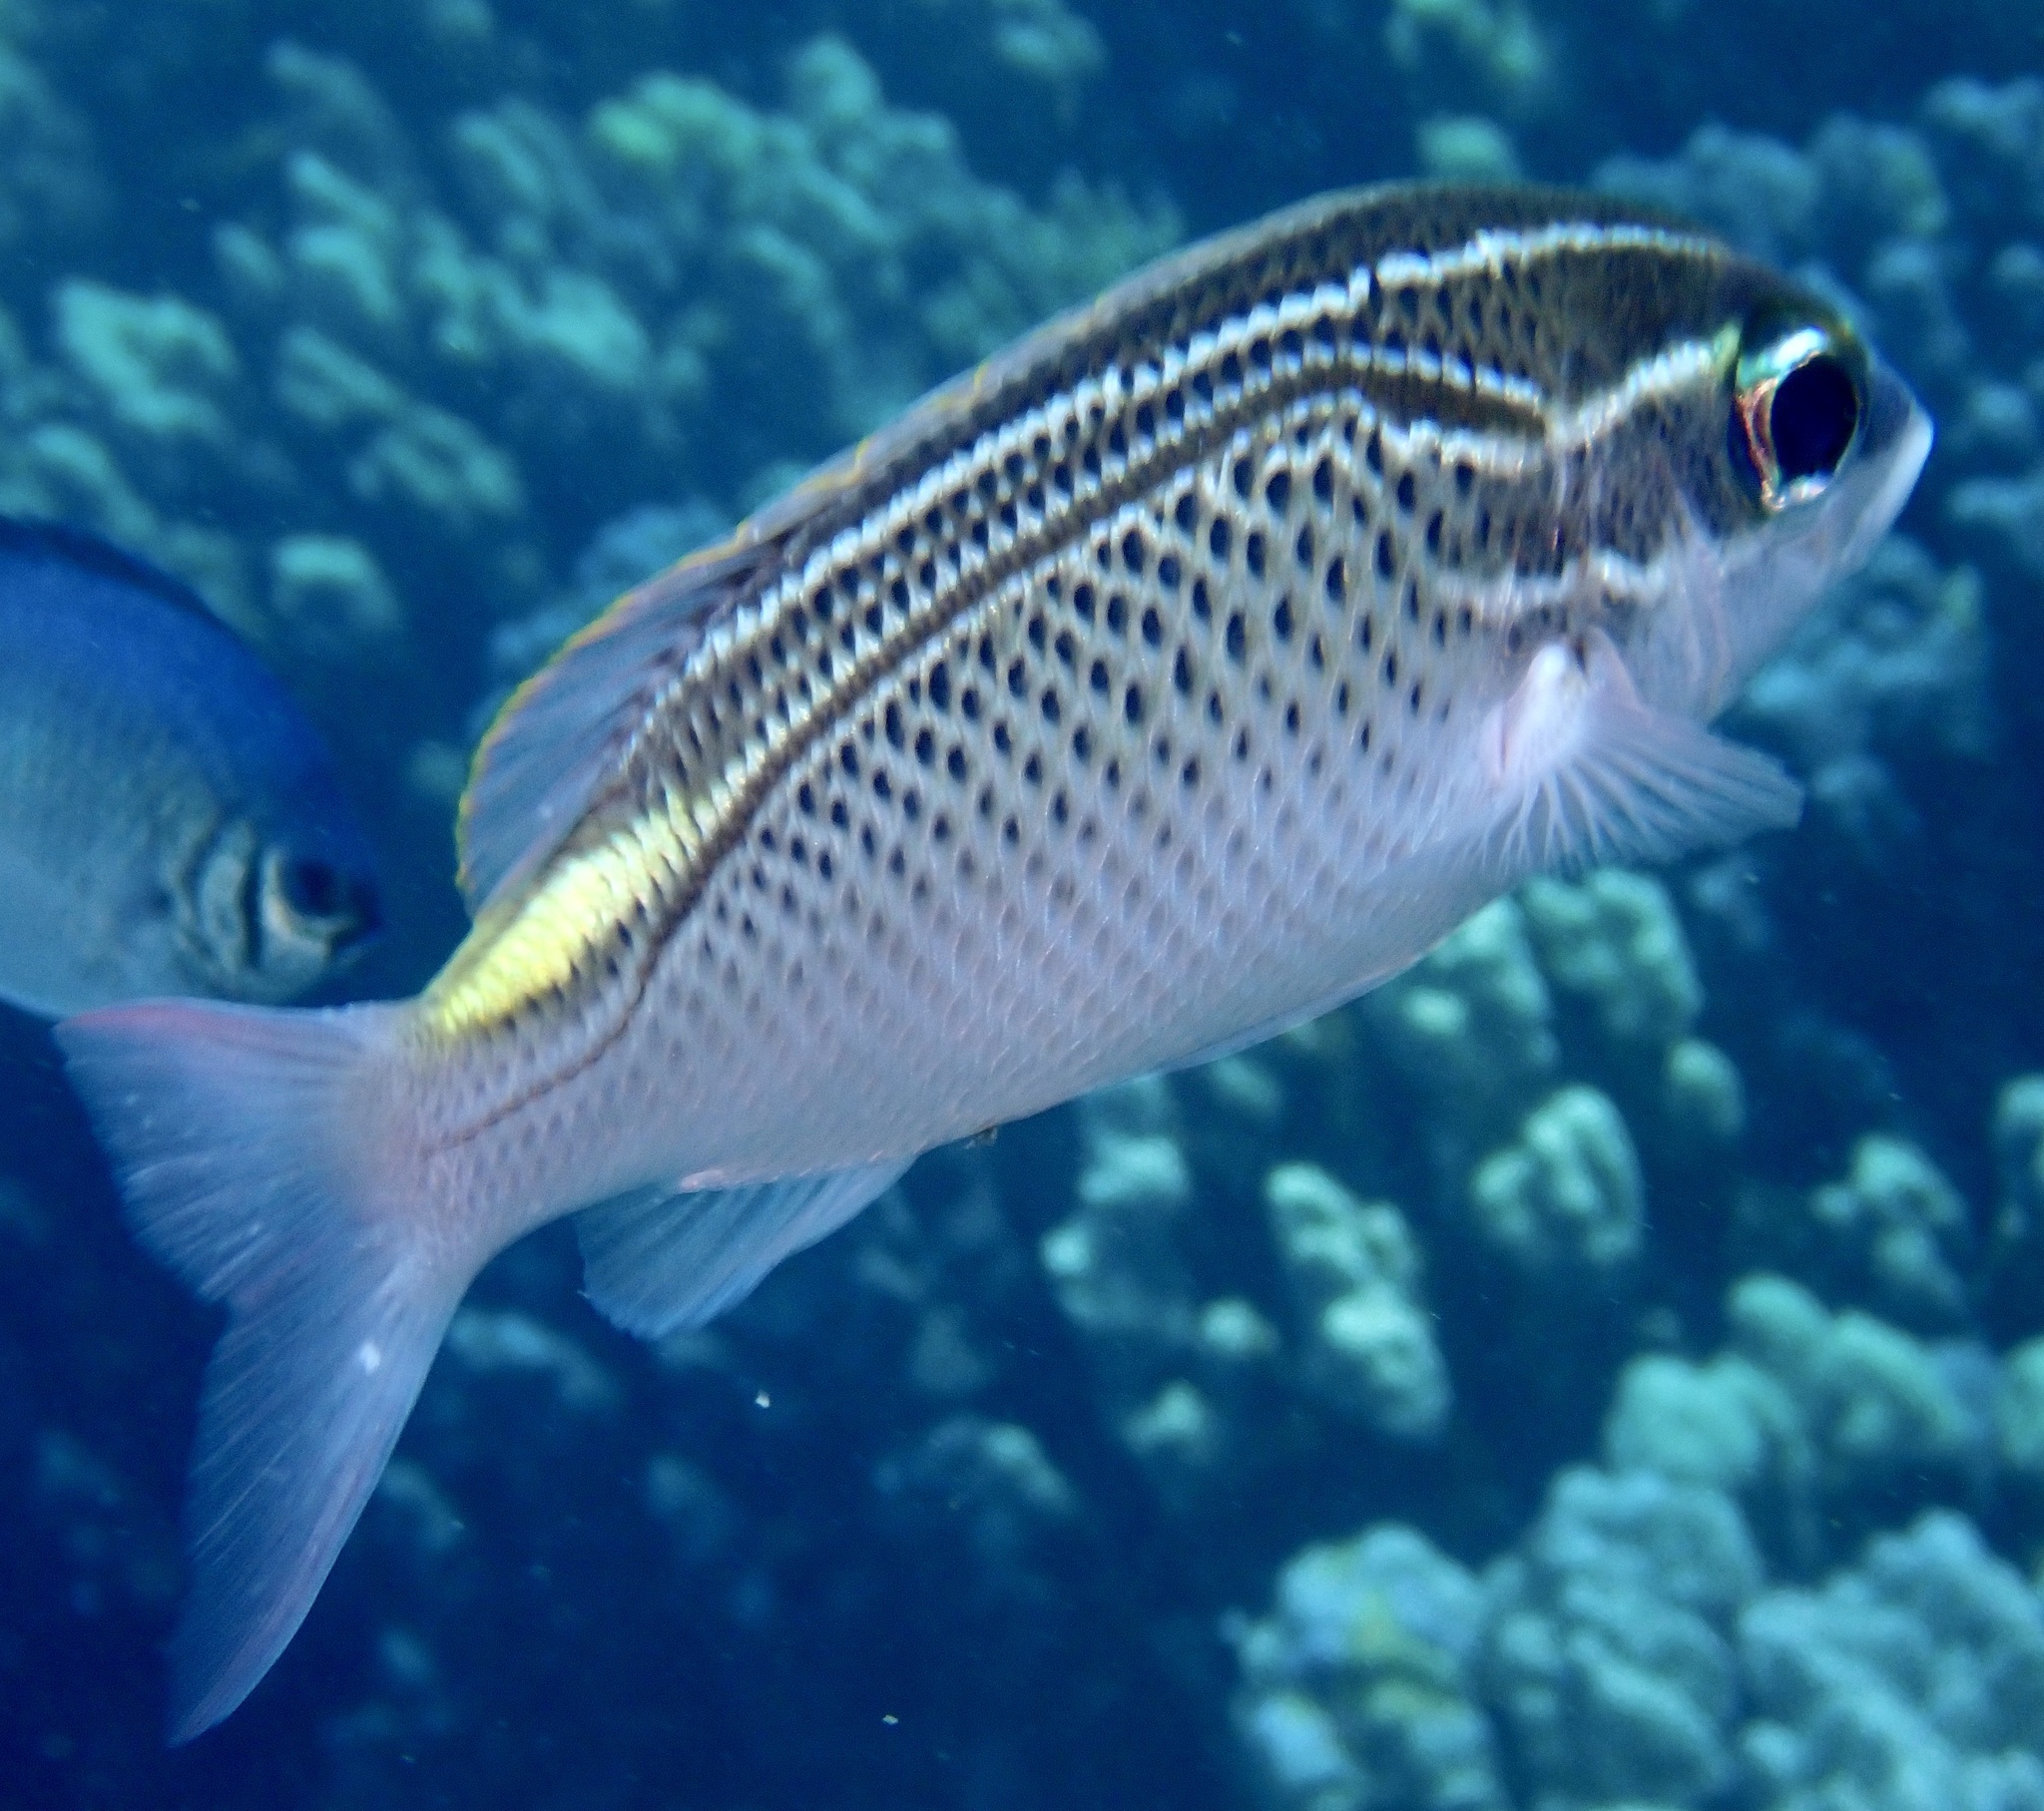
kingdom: Animalia
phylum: Chordata
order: Perciformes
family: Nemipteridae
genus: Scolopsis
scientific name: Scolopsis ghanam
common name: Arabian monocle bream
